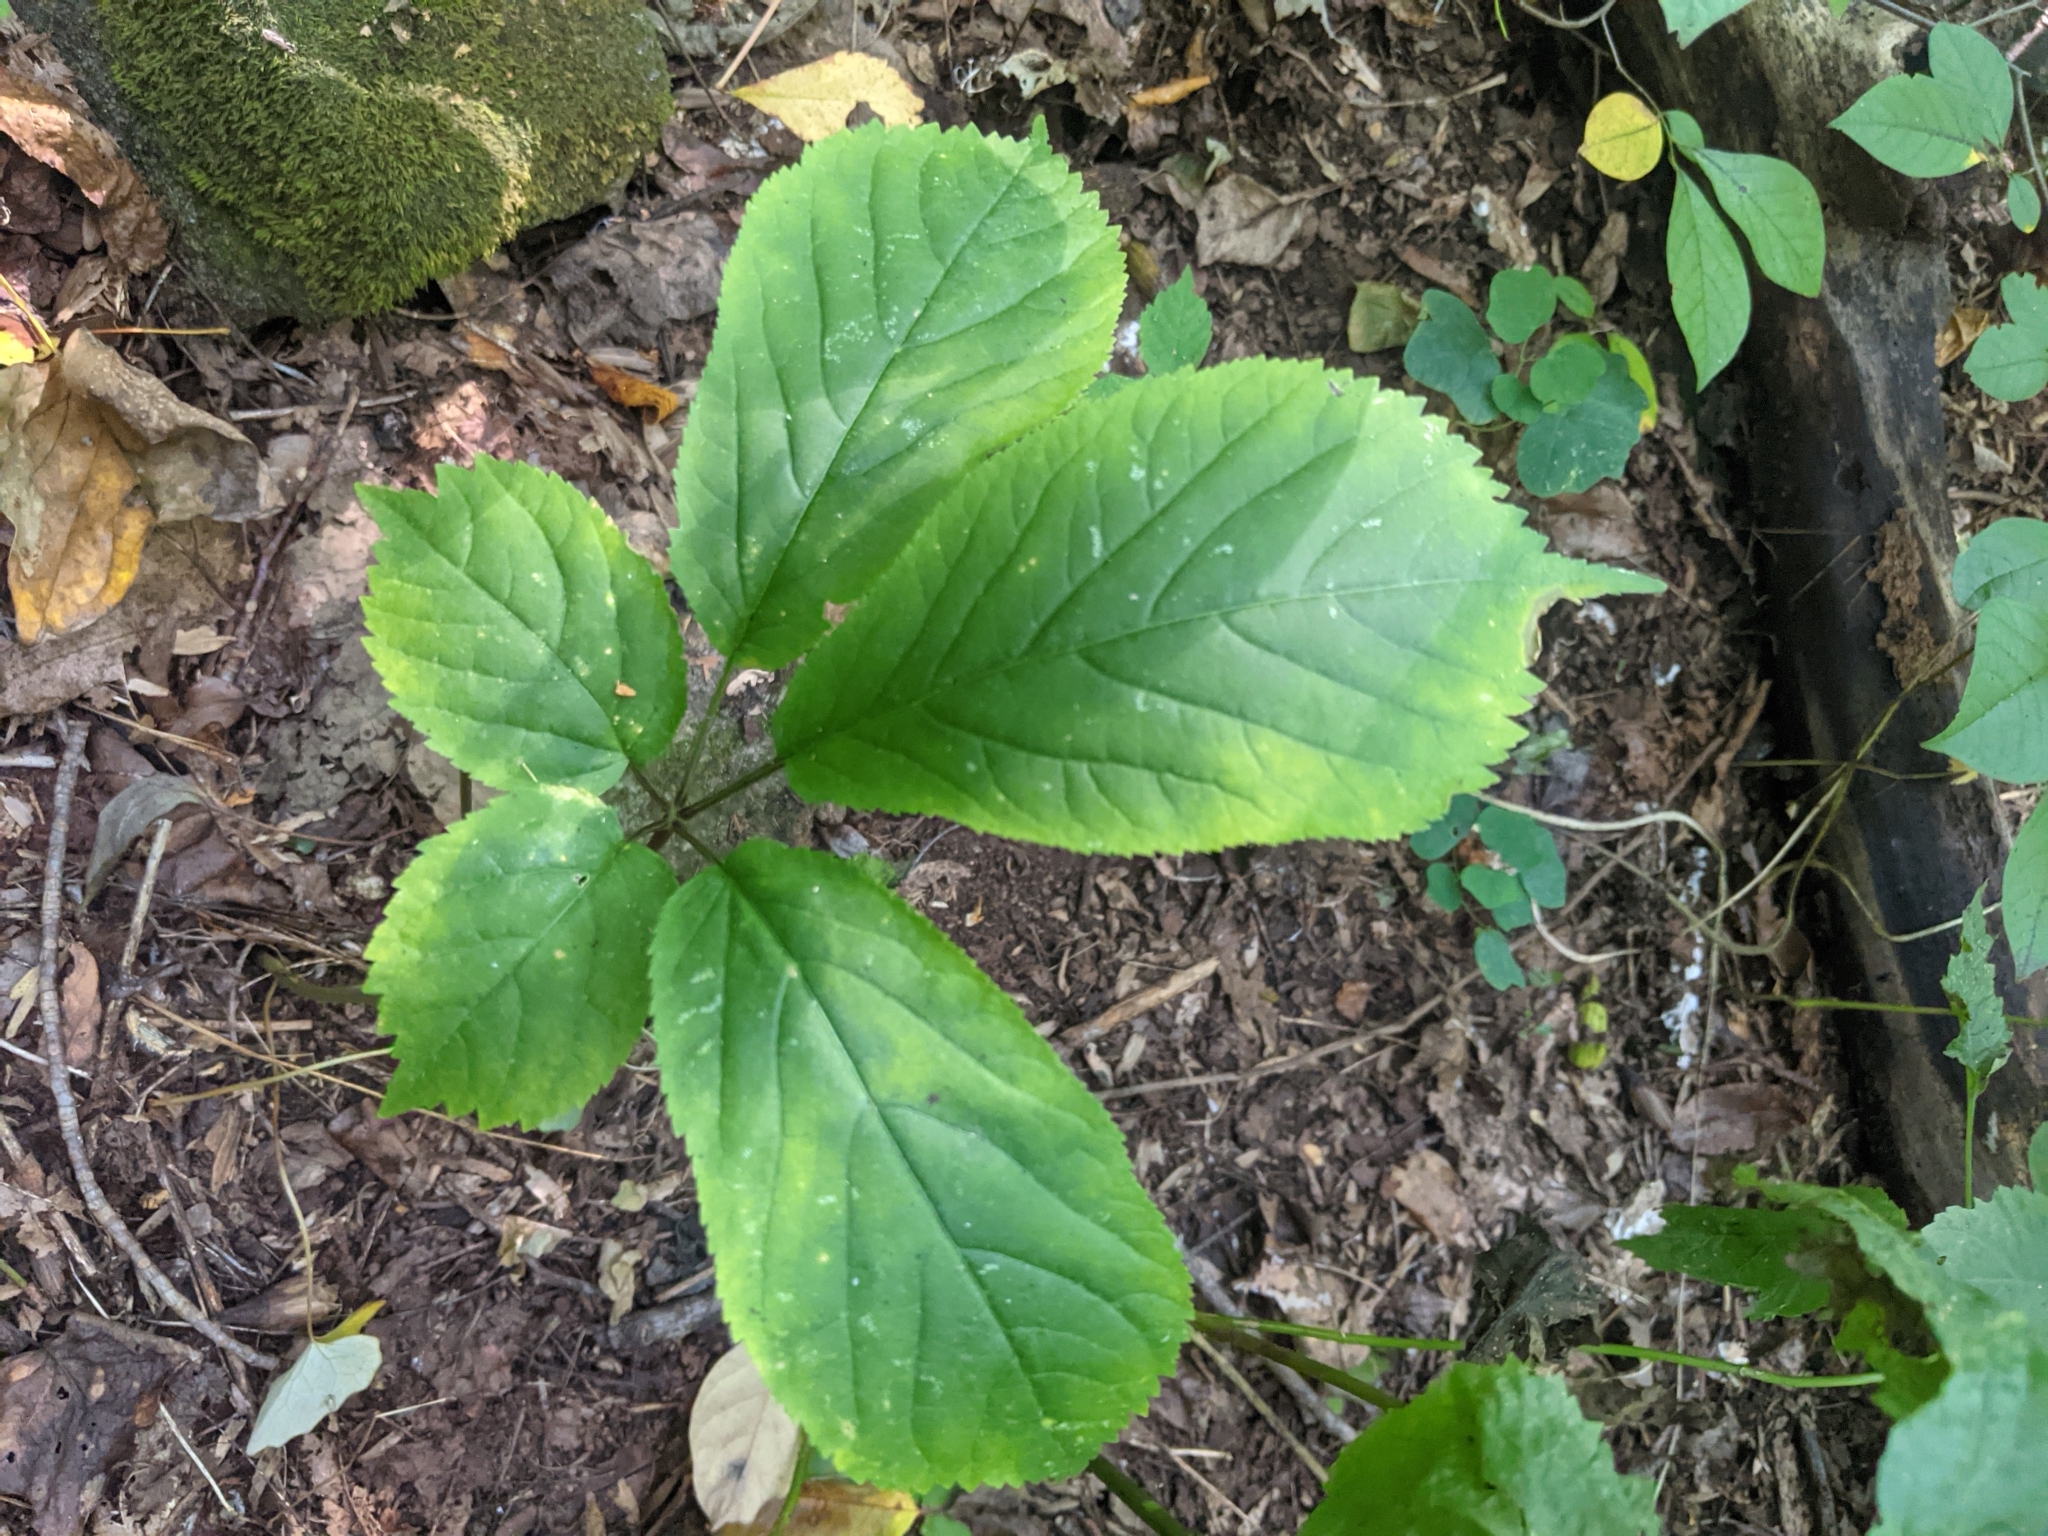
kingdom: Plantae
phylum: Tracheophyta
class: Magnoliopsida
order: Apiales
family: Araliaceae
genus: Panax
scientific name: Panax quinquefolius
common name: American ginseng
